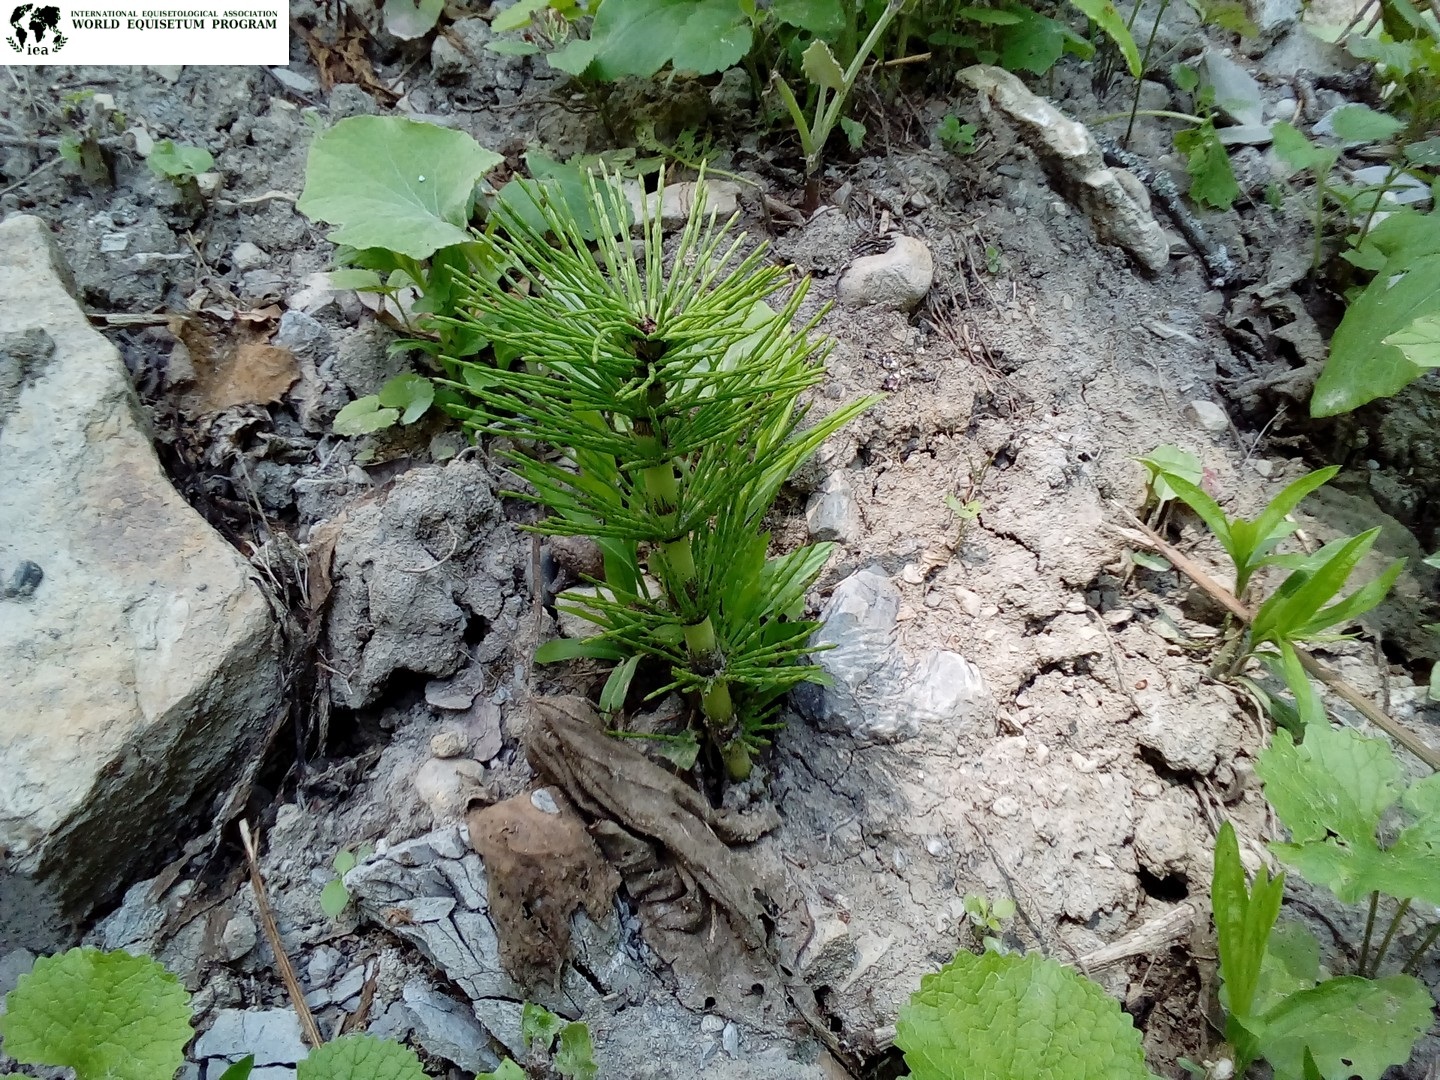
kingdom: Plantae
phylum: Tracheophyta
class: Polypodiopsida
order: Equisetales
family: Equisetaceae
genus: Equisetum
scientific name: Equisetum telmateia
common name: Great horsetail
